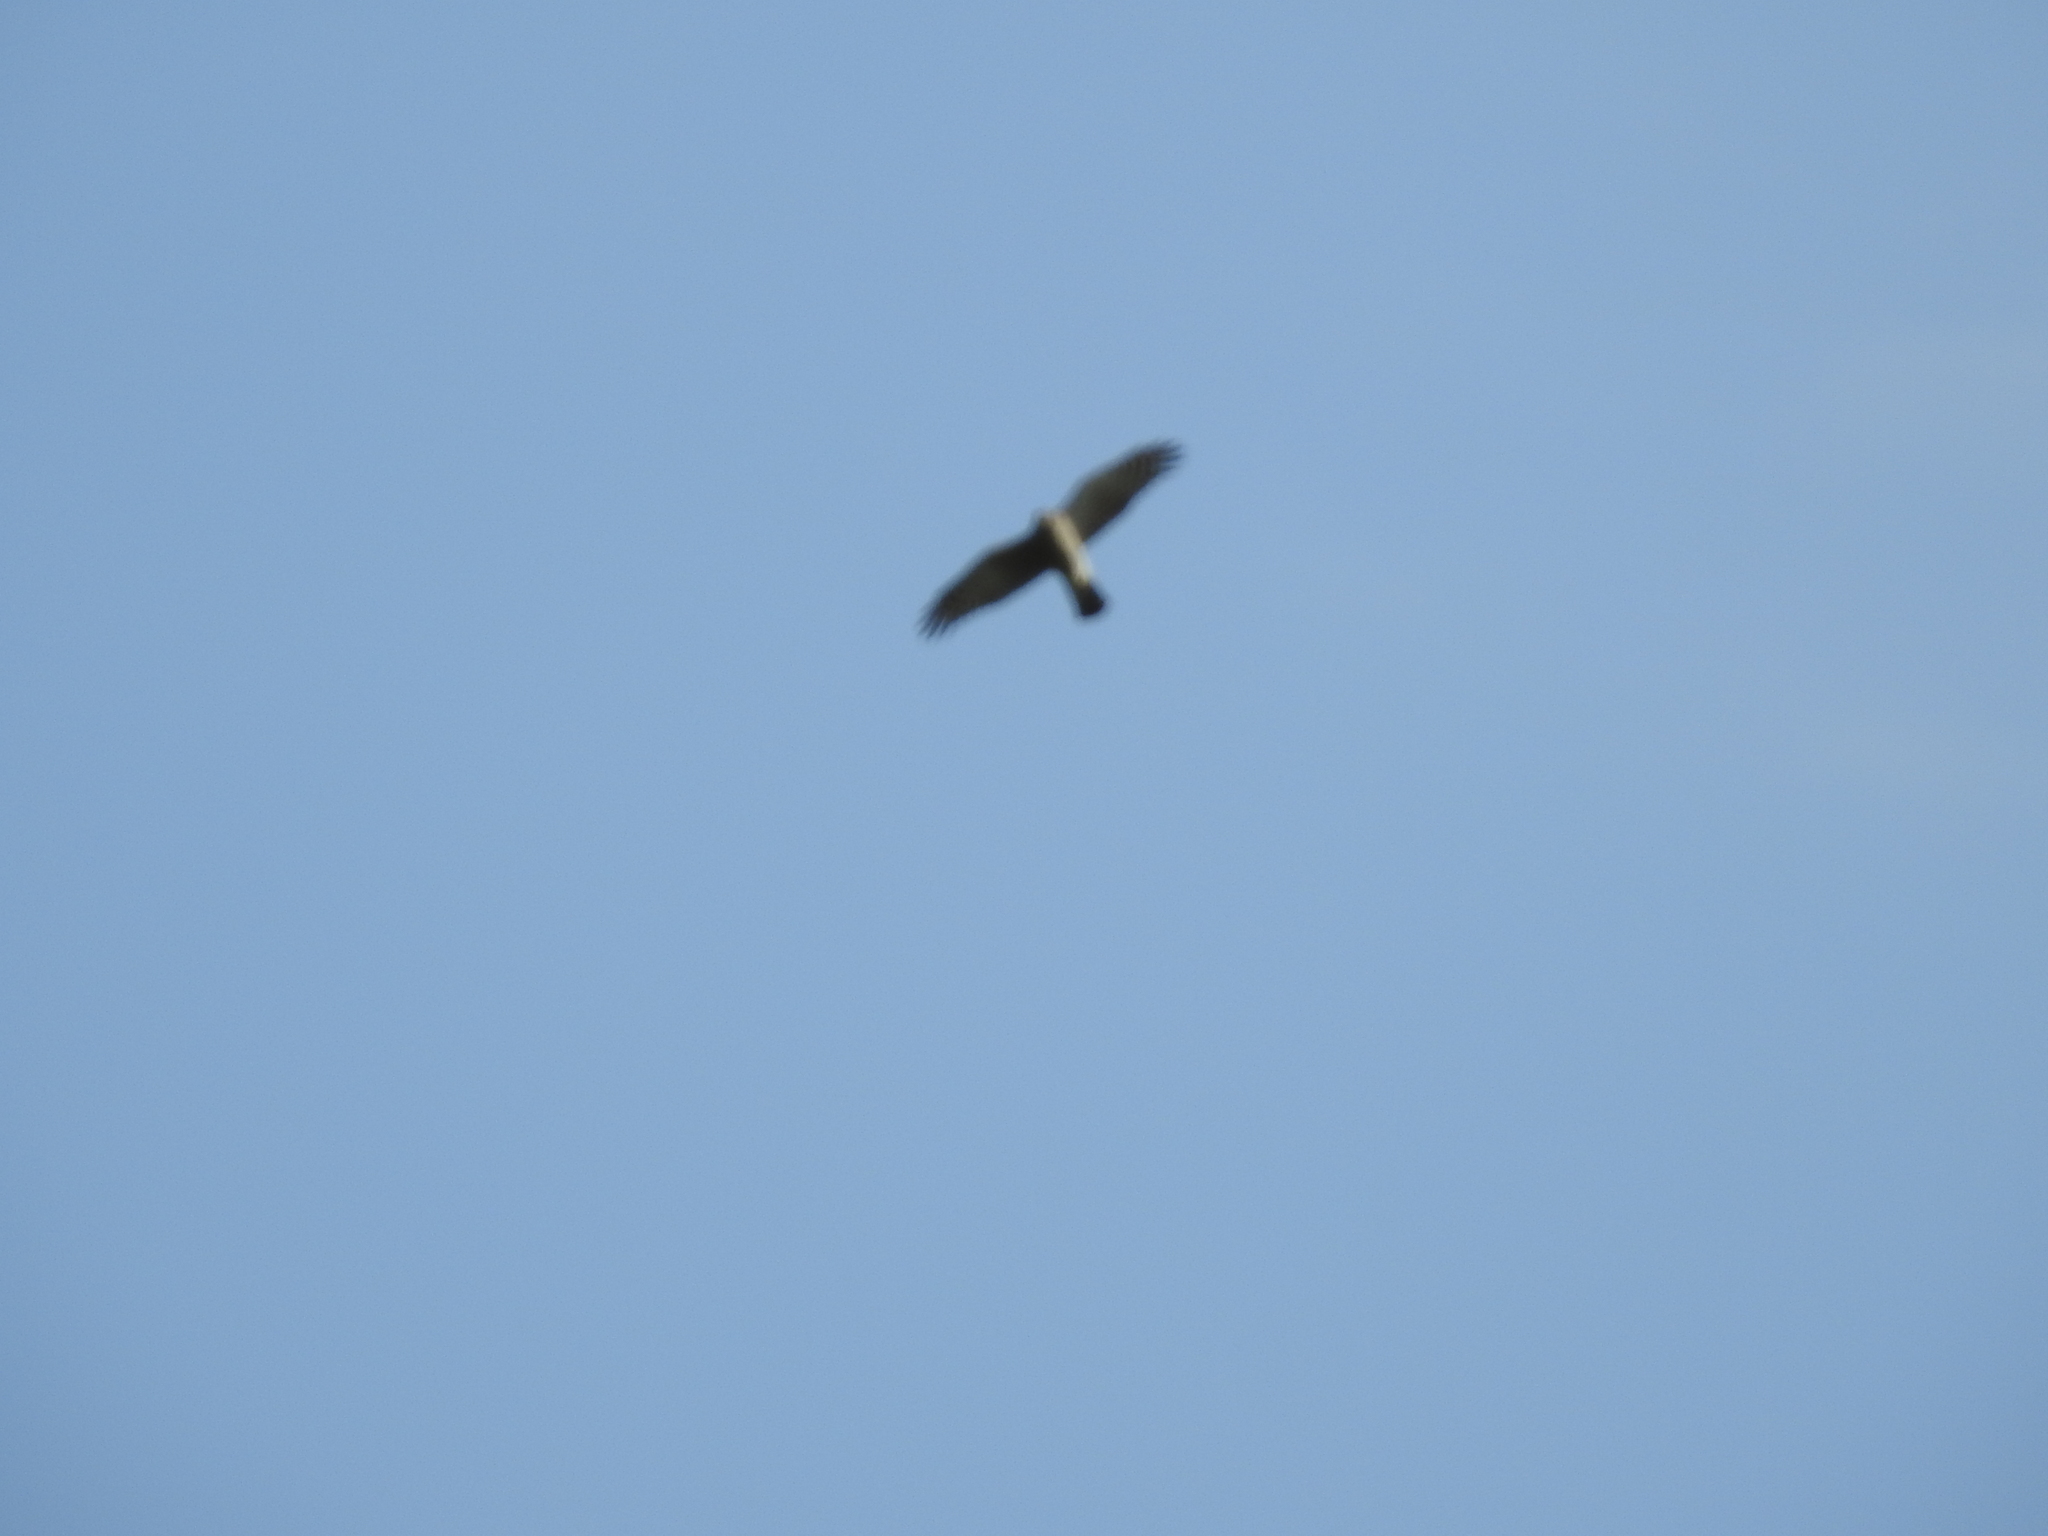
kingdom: Animalia
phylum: Chordata
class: Aves
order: Accipitriformes
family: Accipitridae
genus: Accipiter
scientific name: Accipiter nisus
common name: Eurasian sparrowhawk
